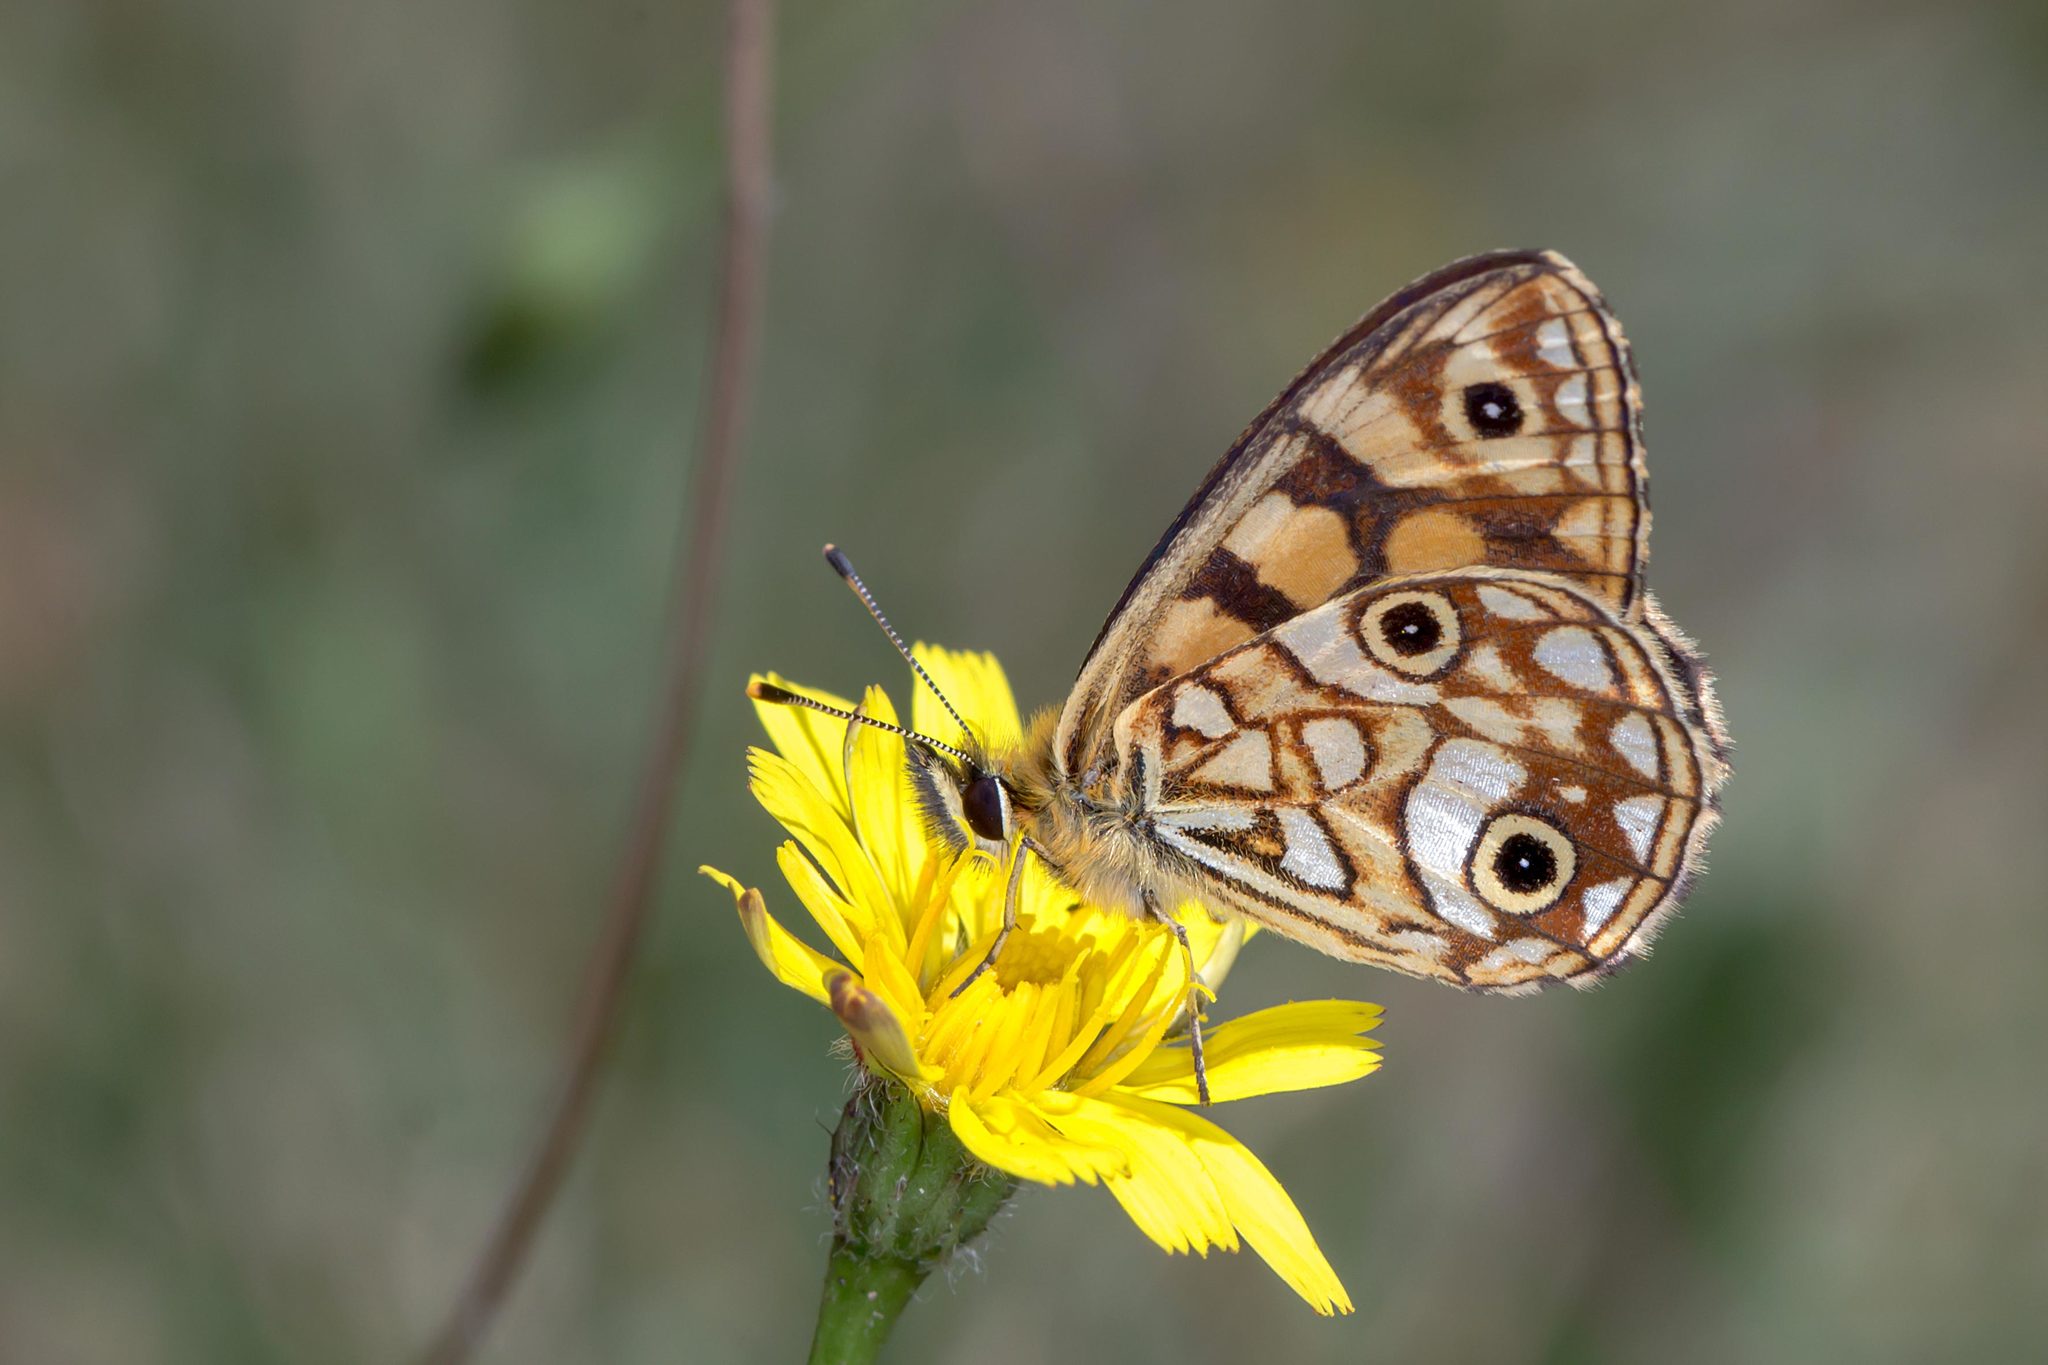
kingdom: Animalia
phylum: Arthropoda
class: Insecta
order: Lepidoptera
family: Nymphalidae
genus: Oreixenica
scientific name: Oreixenica lathoniella
